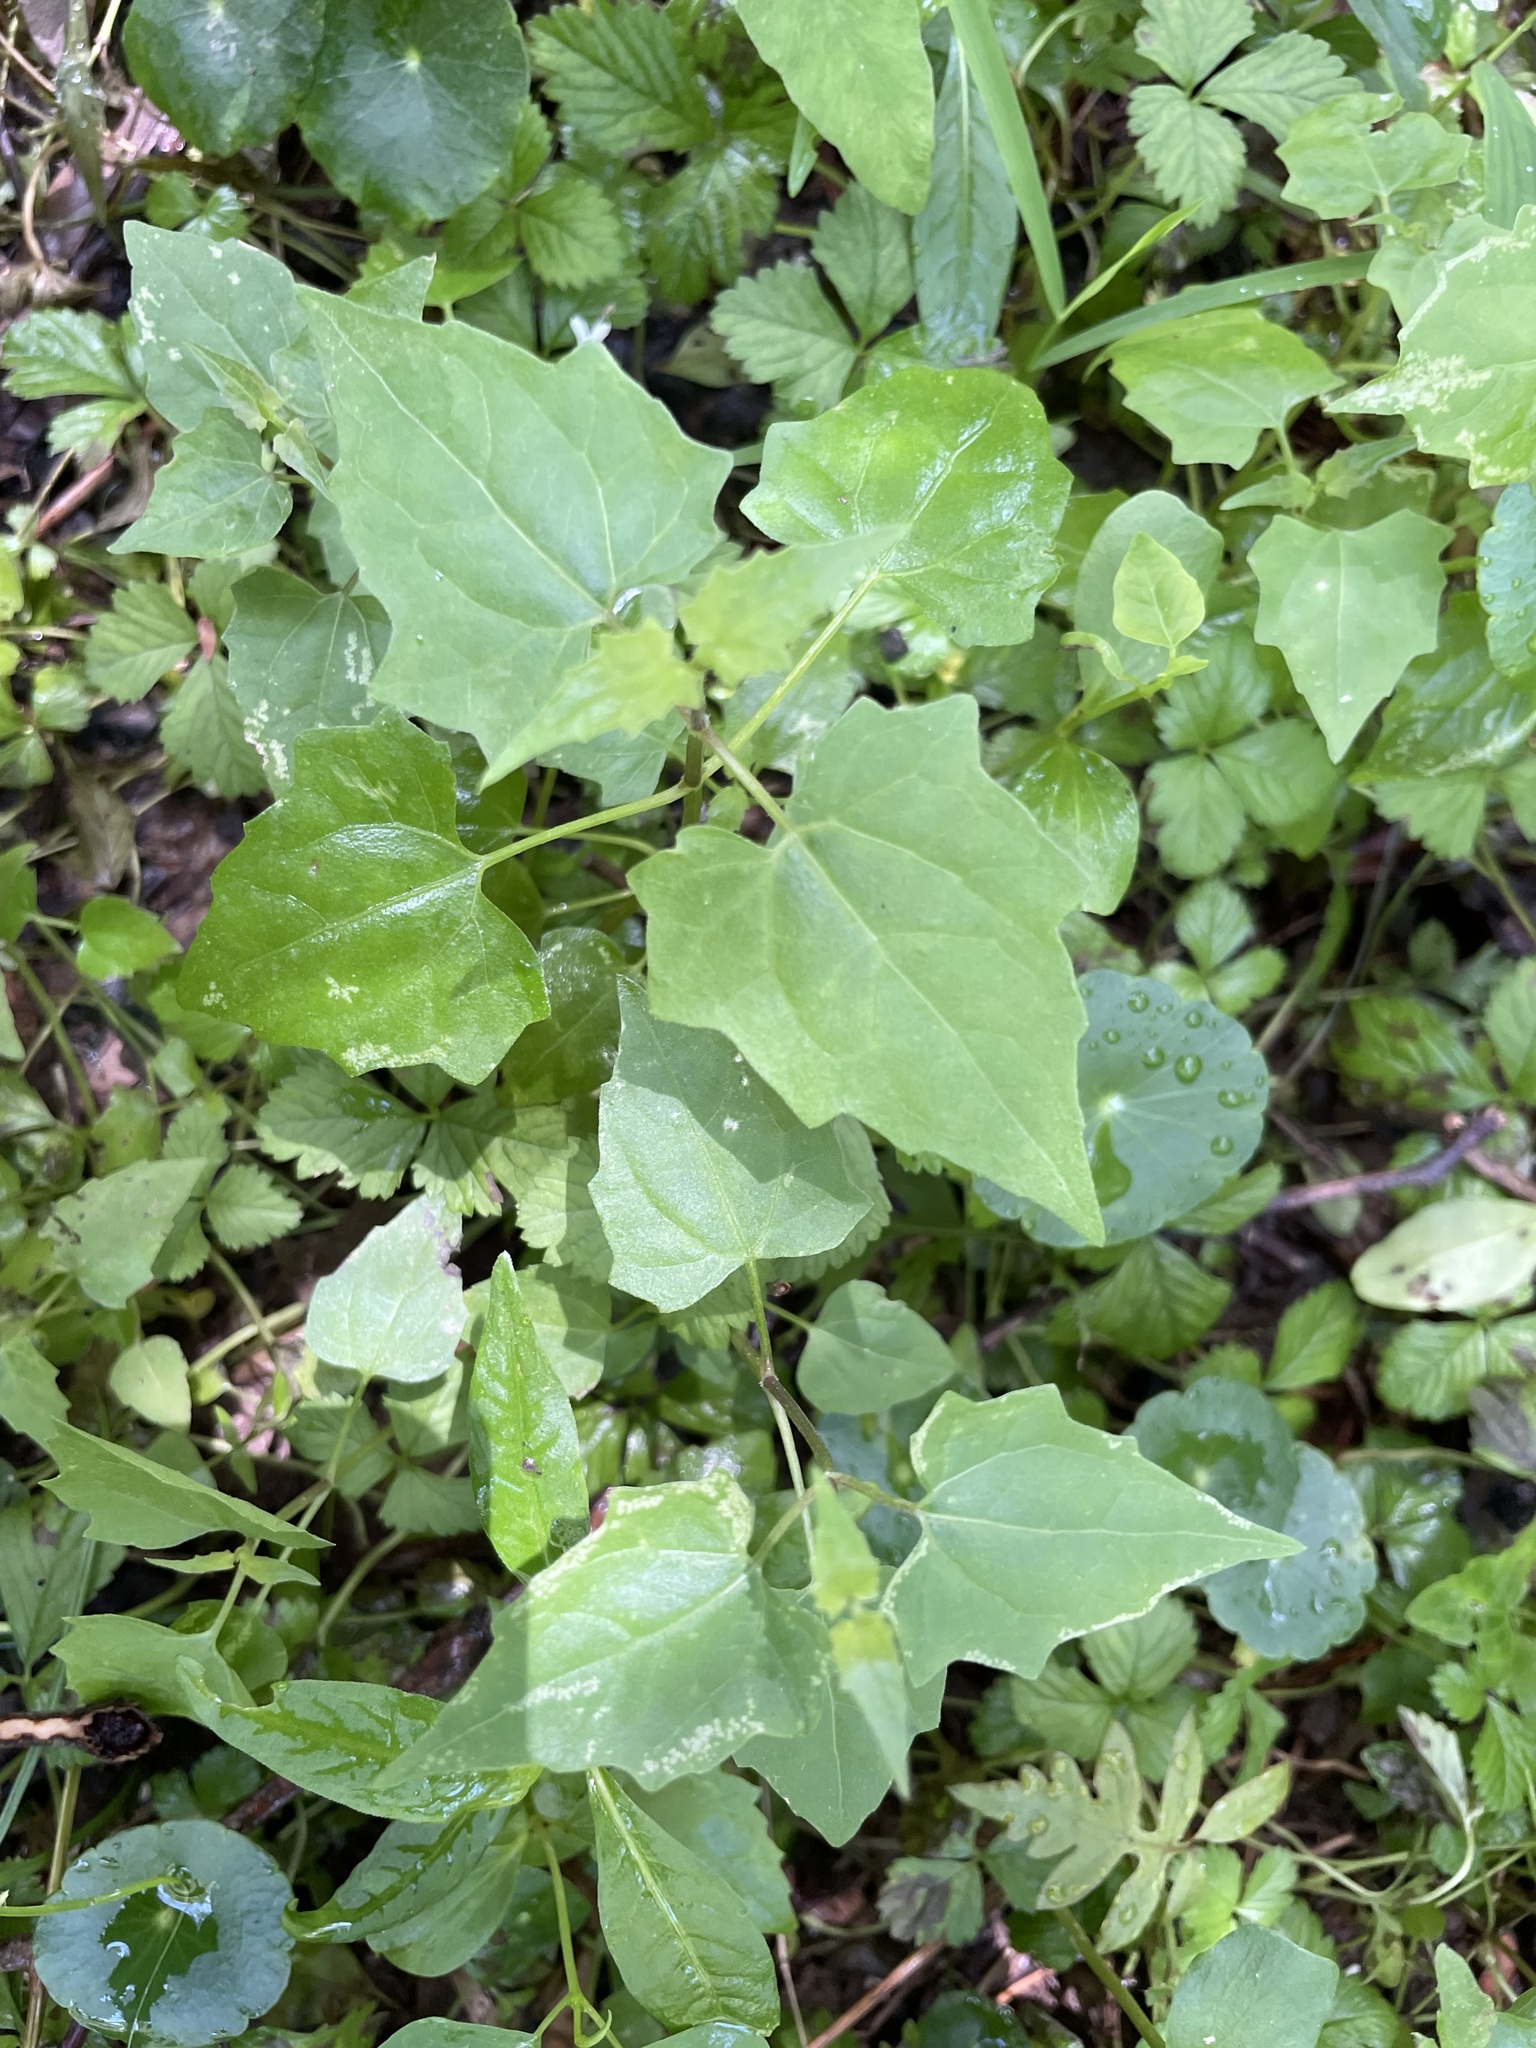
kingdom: Plantae
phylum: Tracheophyta
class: Magnoliopsida
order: Asterales
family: Asteraceae
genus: Mikania
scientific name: Mikania scandens
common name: Climbing hempvine
